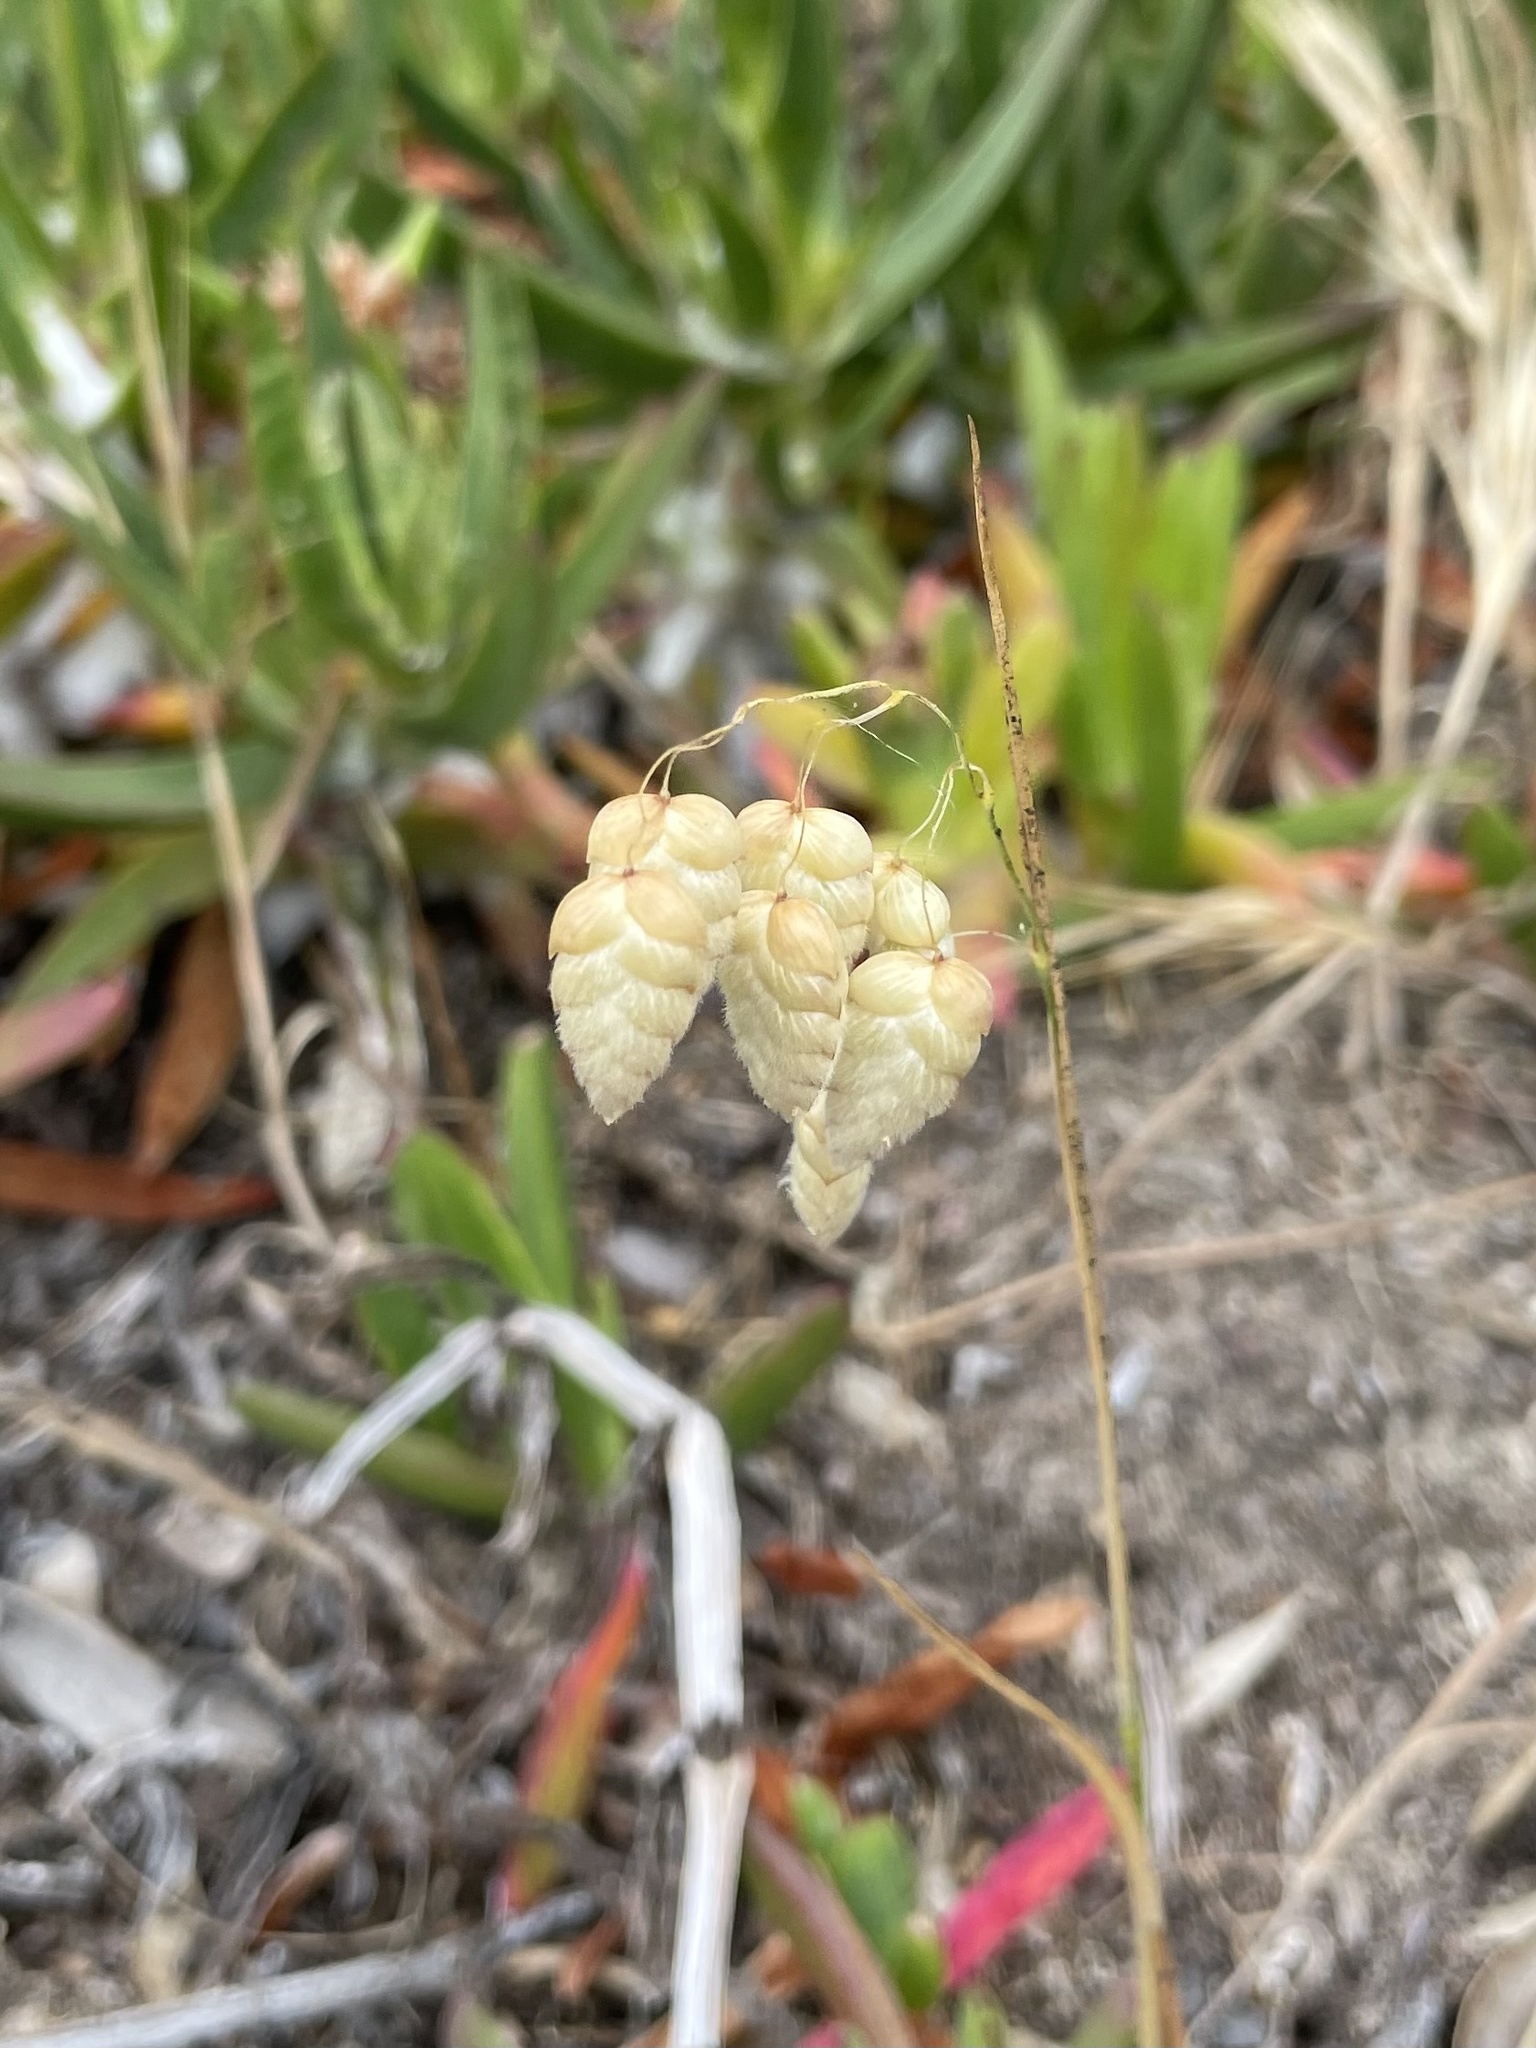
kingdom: Plantae
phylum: Tracheophyta
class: Liliopsida
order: Poales
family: Poaceae
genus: Briza
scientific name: Briza maxima
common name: Big quakinggrass
